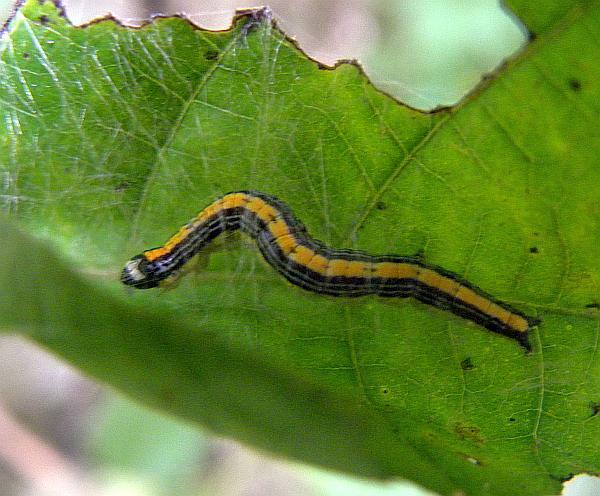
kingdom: Animalia
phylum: Arthropoda
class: Insecta
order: Lepidoptera
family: Pyralidae
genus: Epipaschia
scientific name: Epipaschia superatalis
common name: Dimorphic macalla moth
